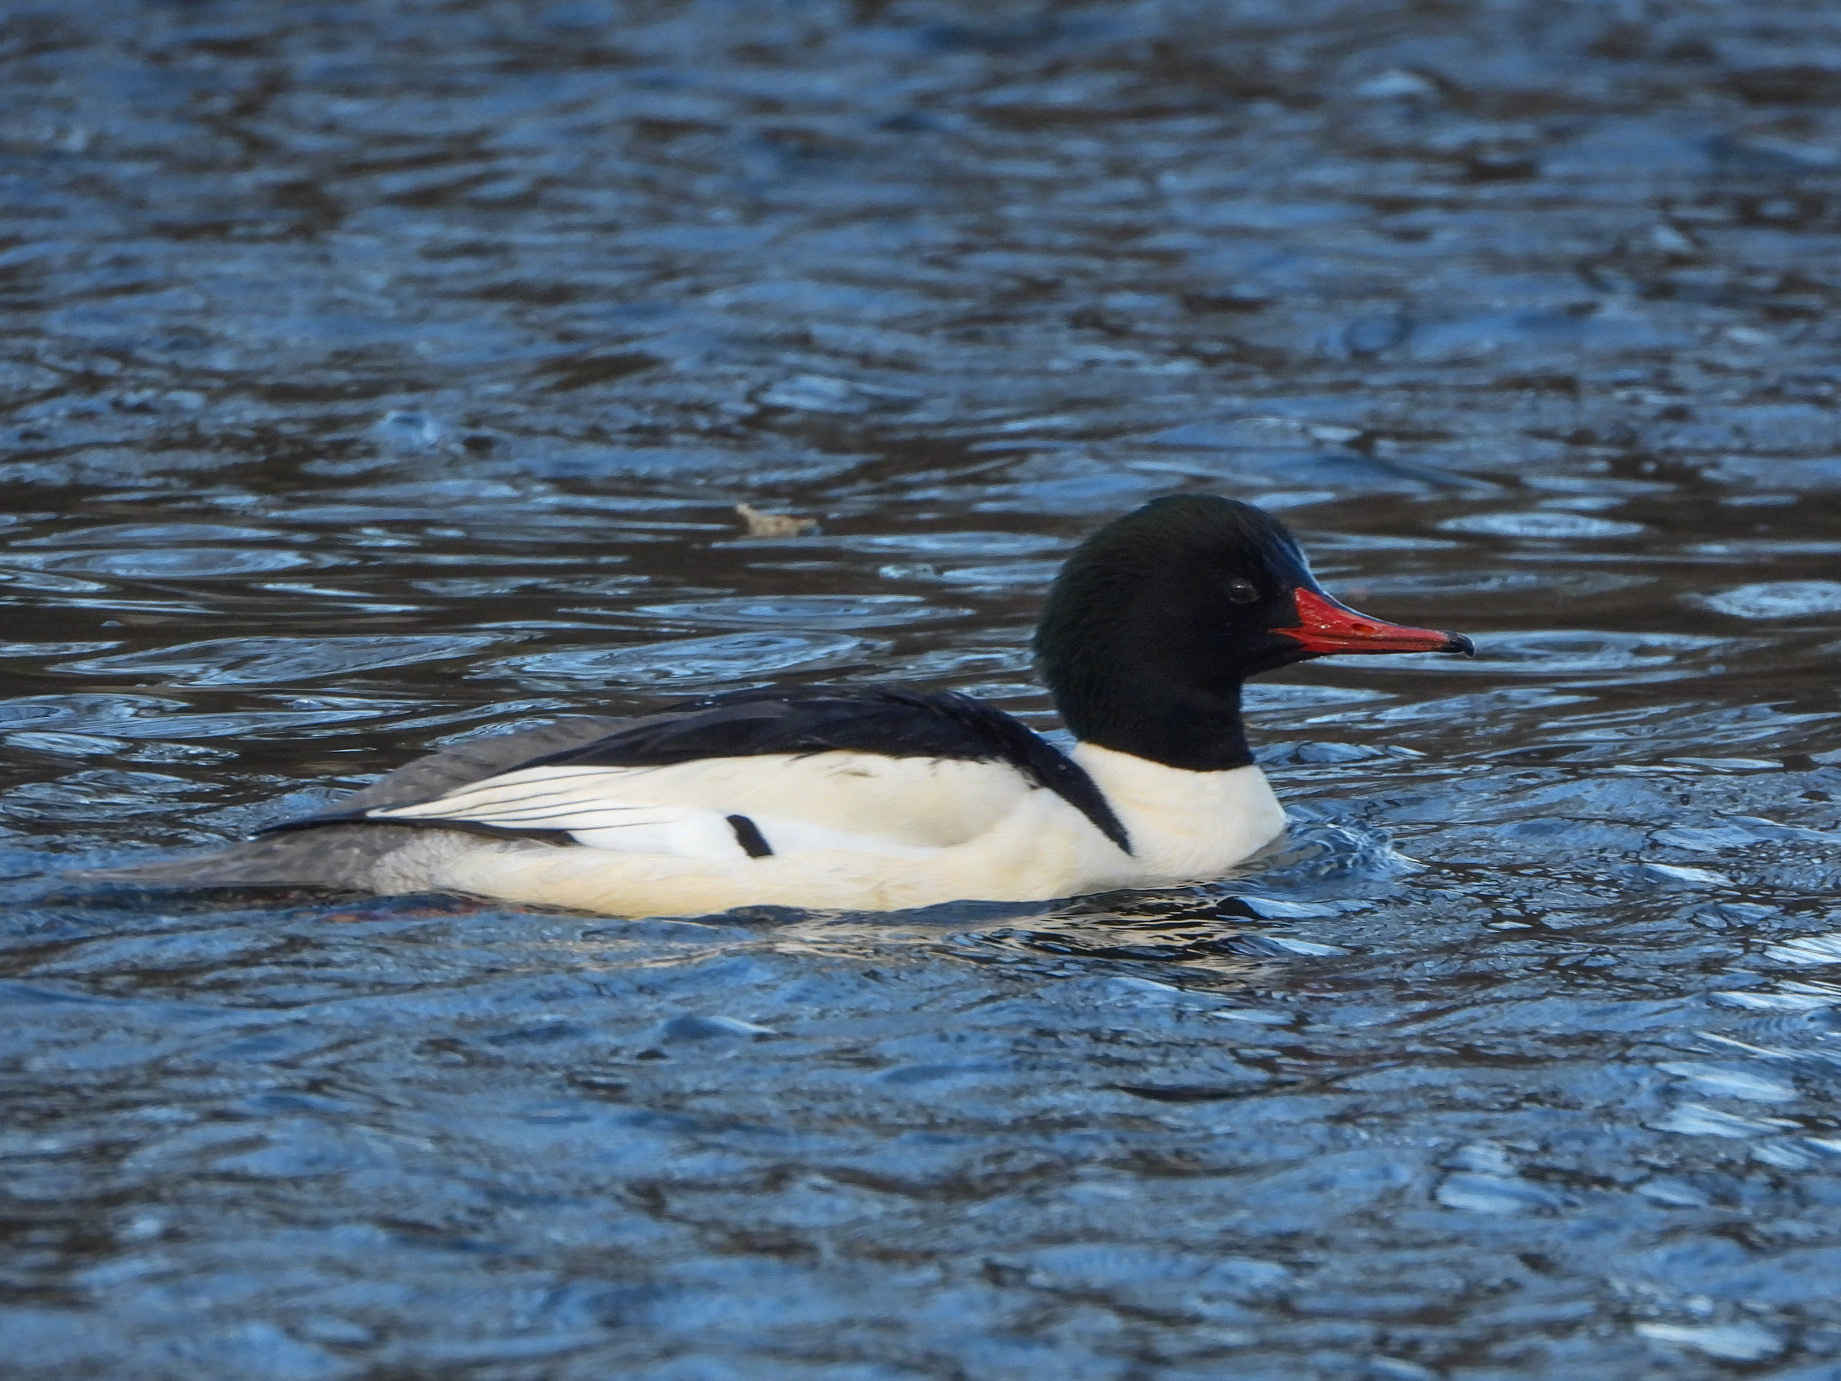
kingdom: Animalia
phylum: Chordata
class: Aves
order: Anseriformes
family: Anatidae
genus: Mergus
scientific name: Mergus merganser
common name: Common merganser
